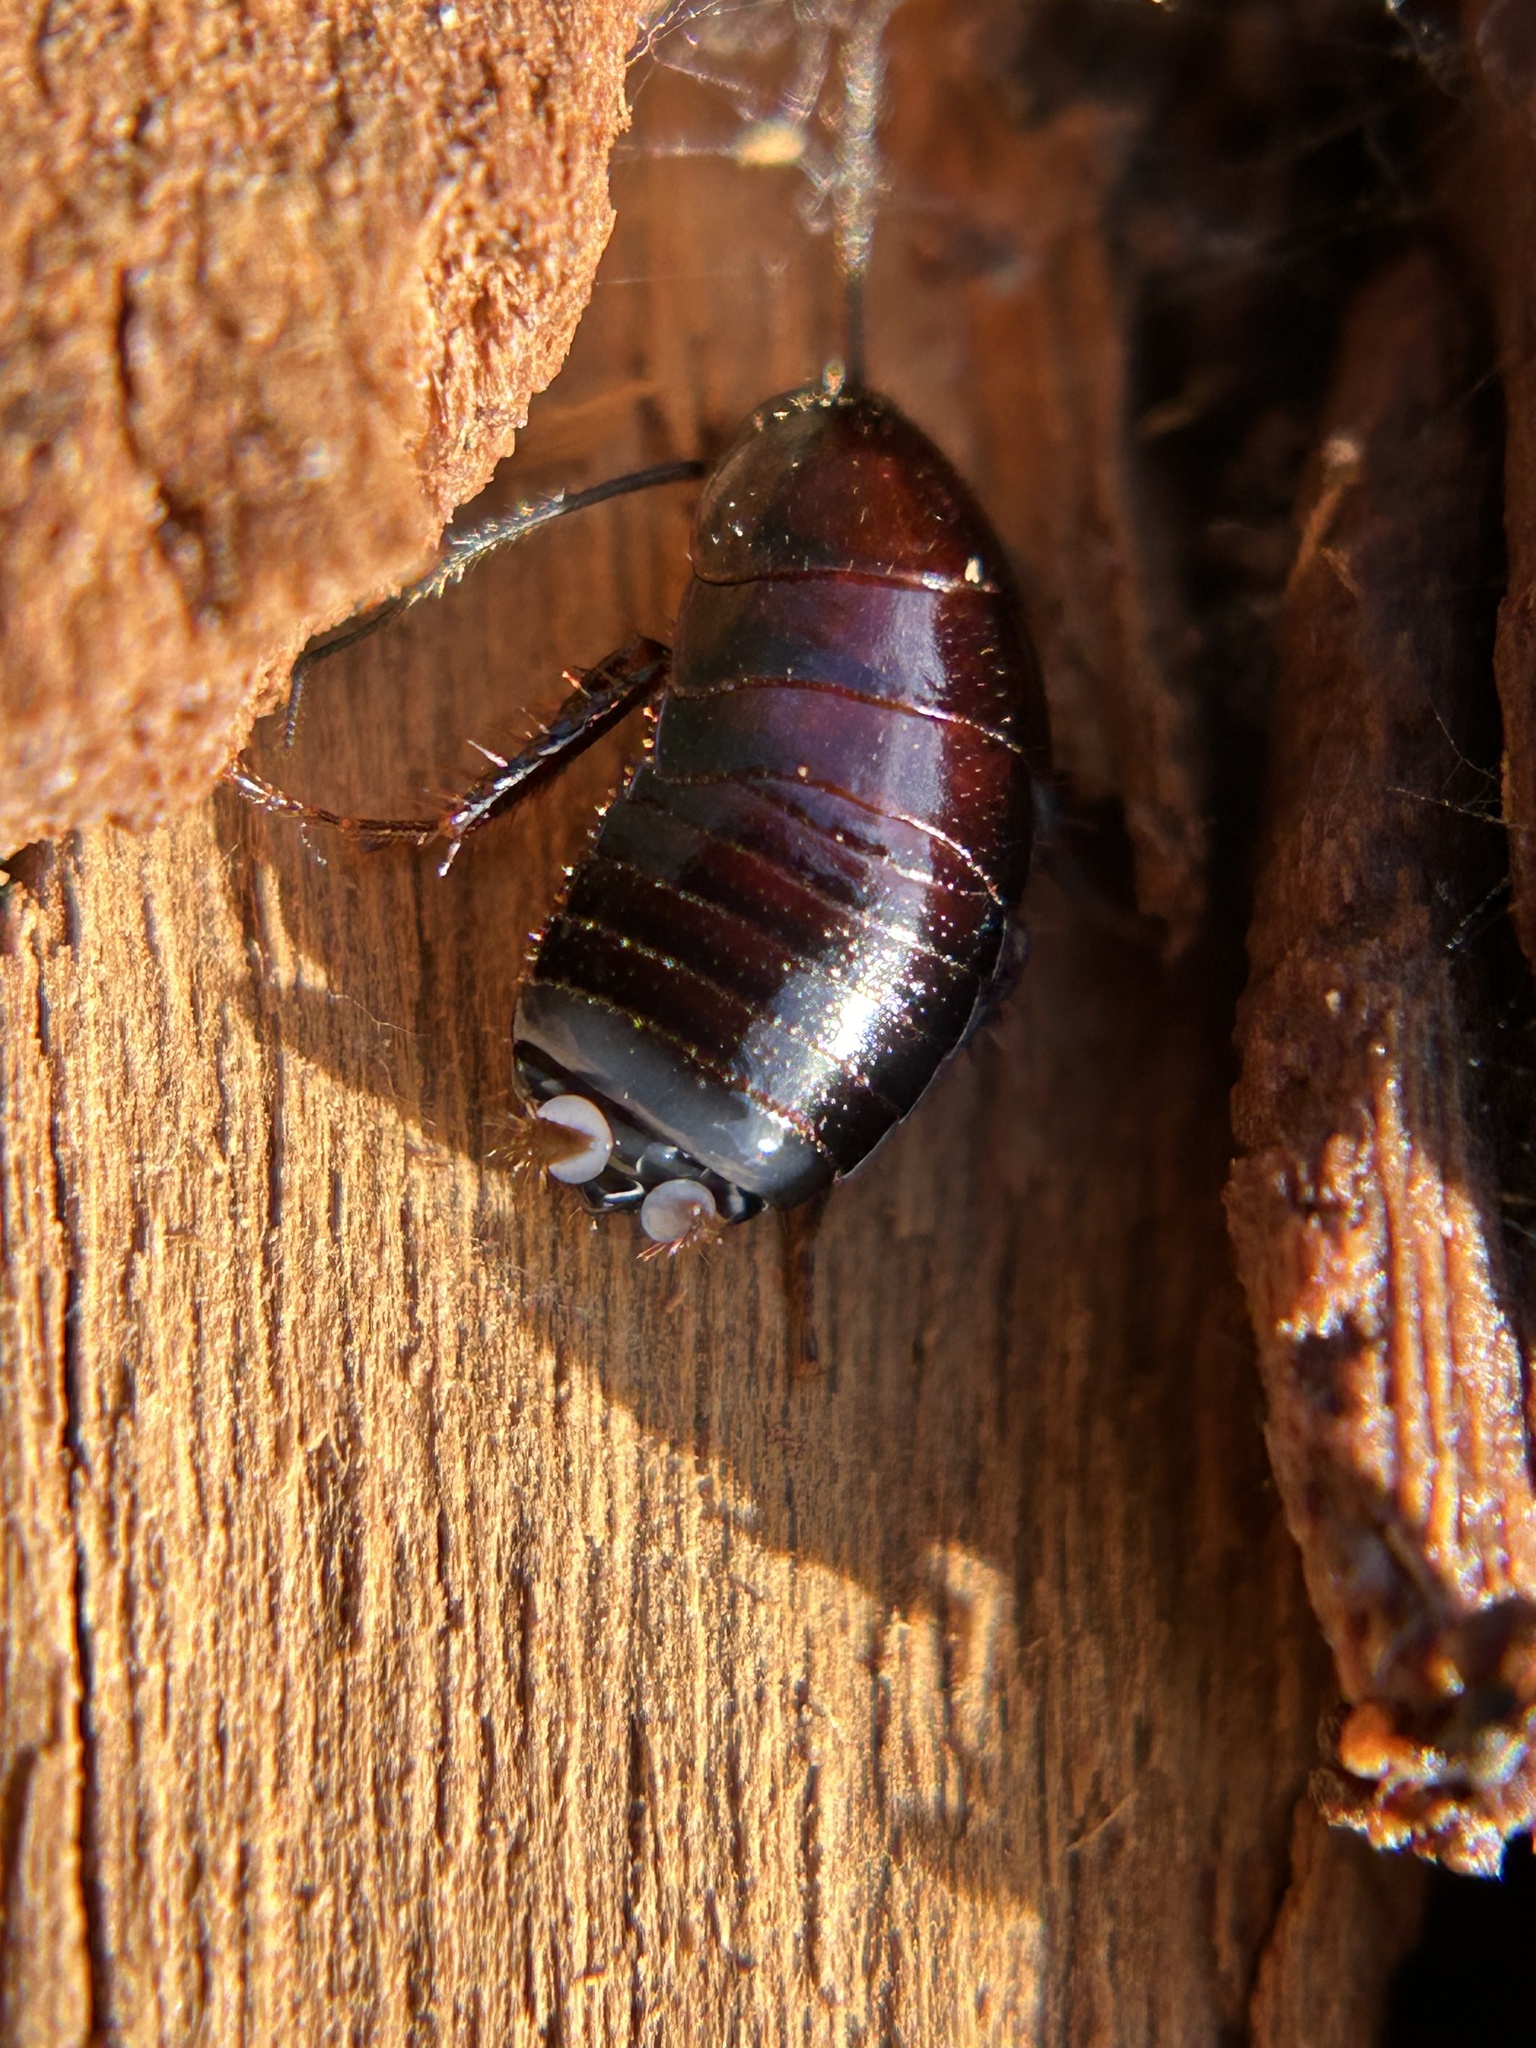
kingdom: Animalia
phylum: Arthropoda
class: Insecta
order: Blattodea
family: Ectobiidae
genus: Parcoblatta
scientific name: Parcoblatta americana
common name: Western wood cockroach
